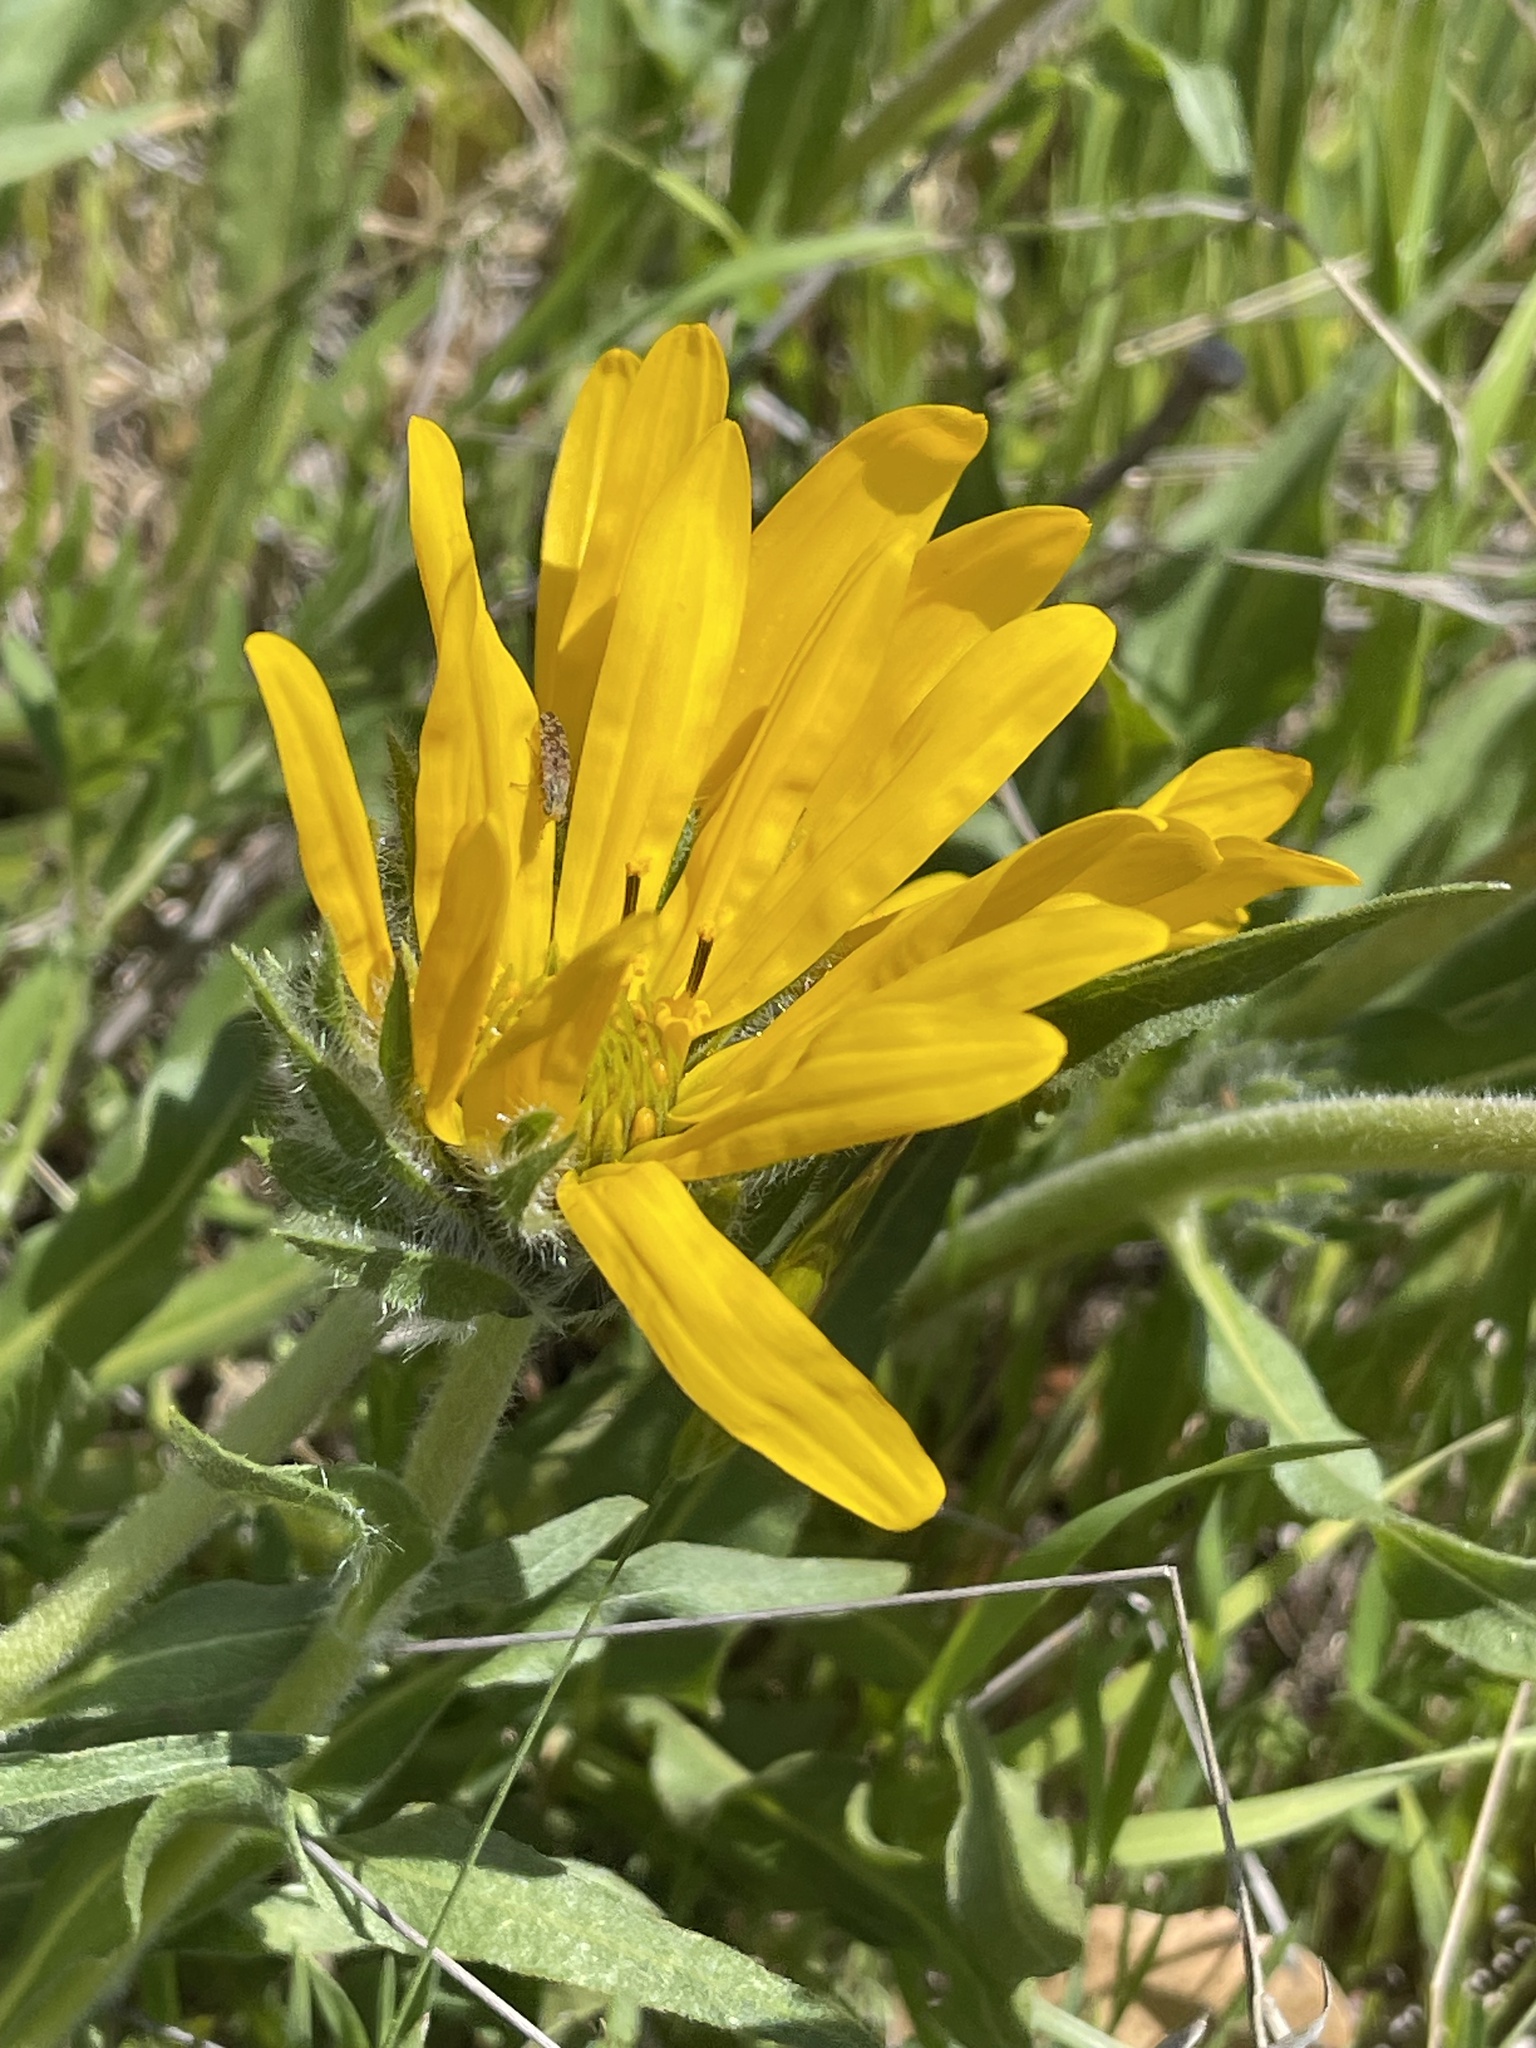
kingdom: Plantae
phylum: Tracheophyta
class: Magnoliopsida
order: Asterales
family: Asteraceae
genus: Wyethia
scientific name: Wyethia angustifolia
